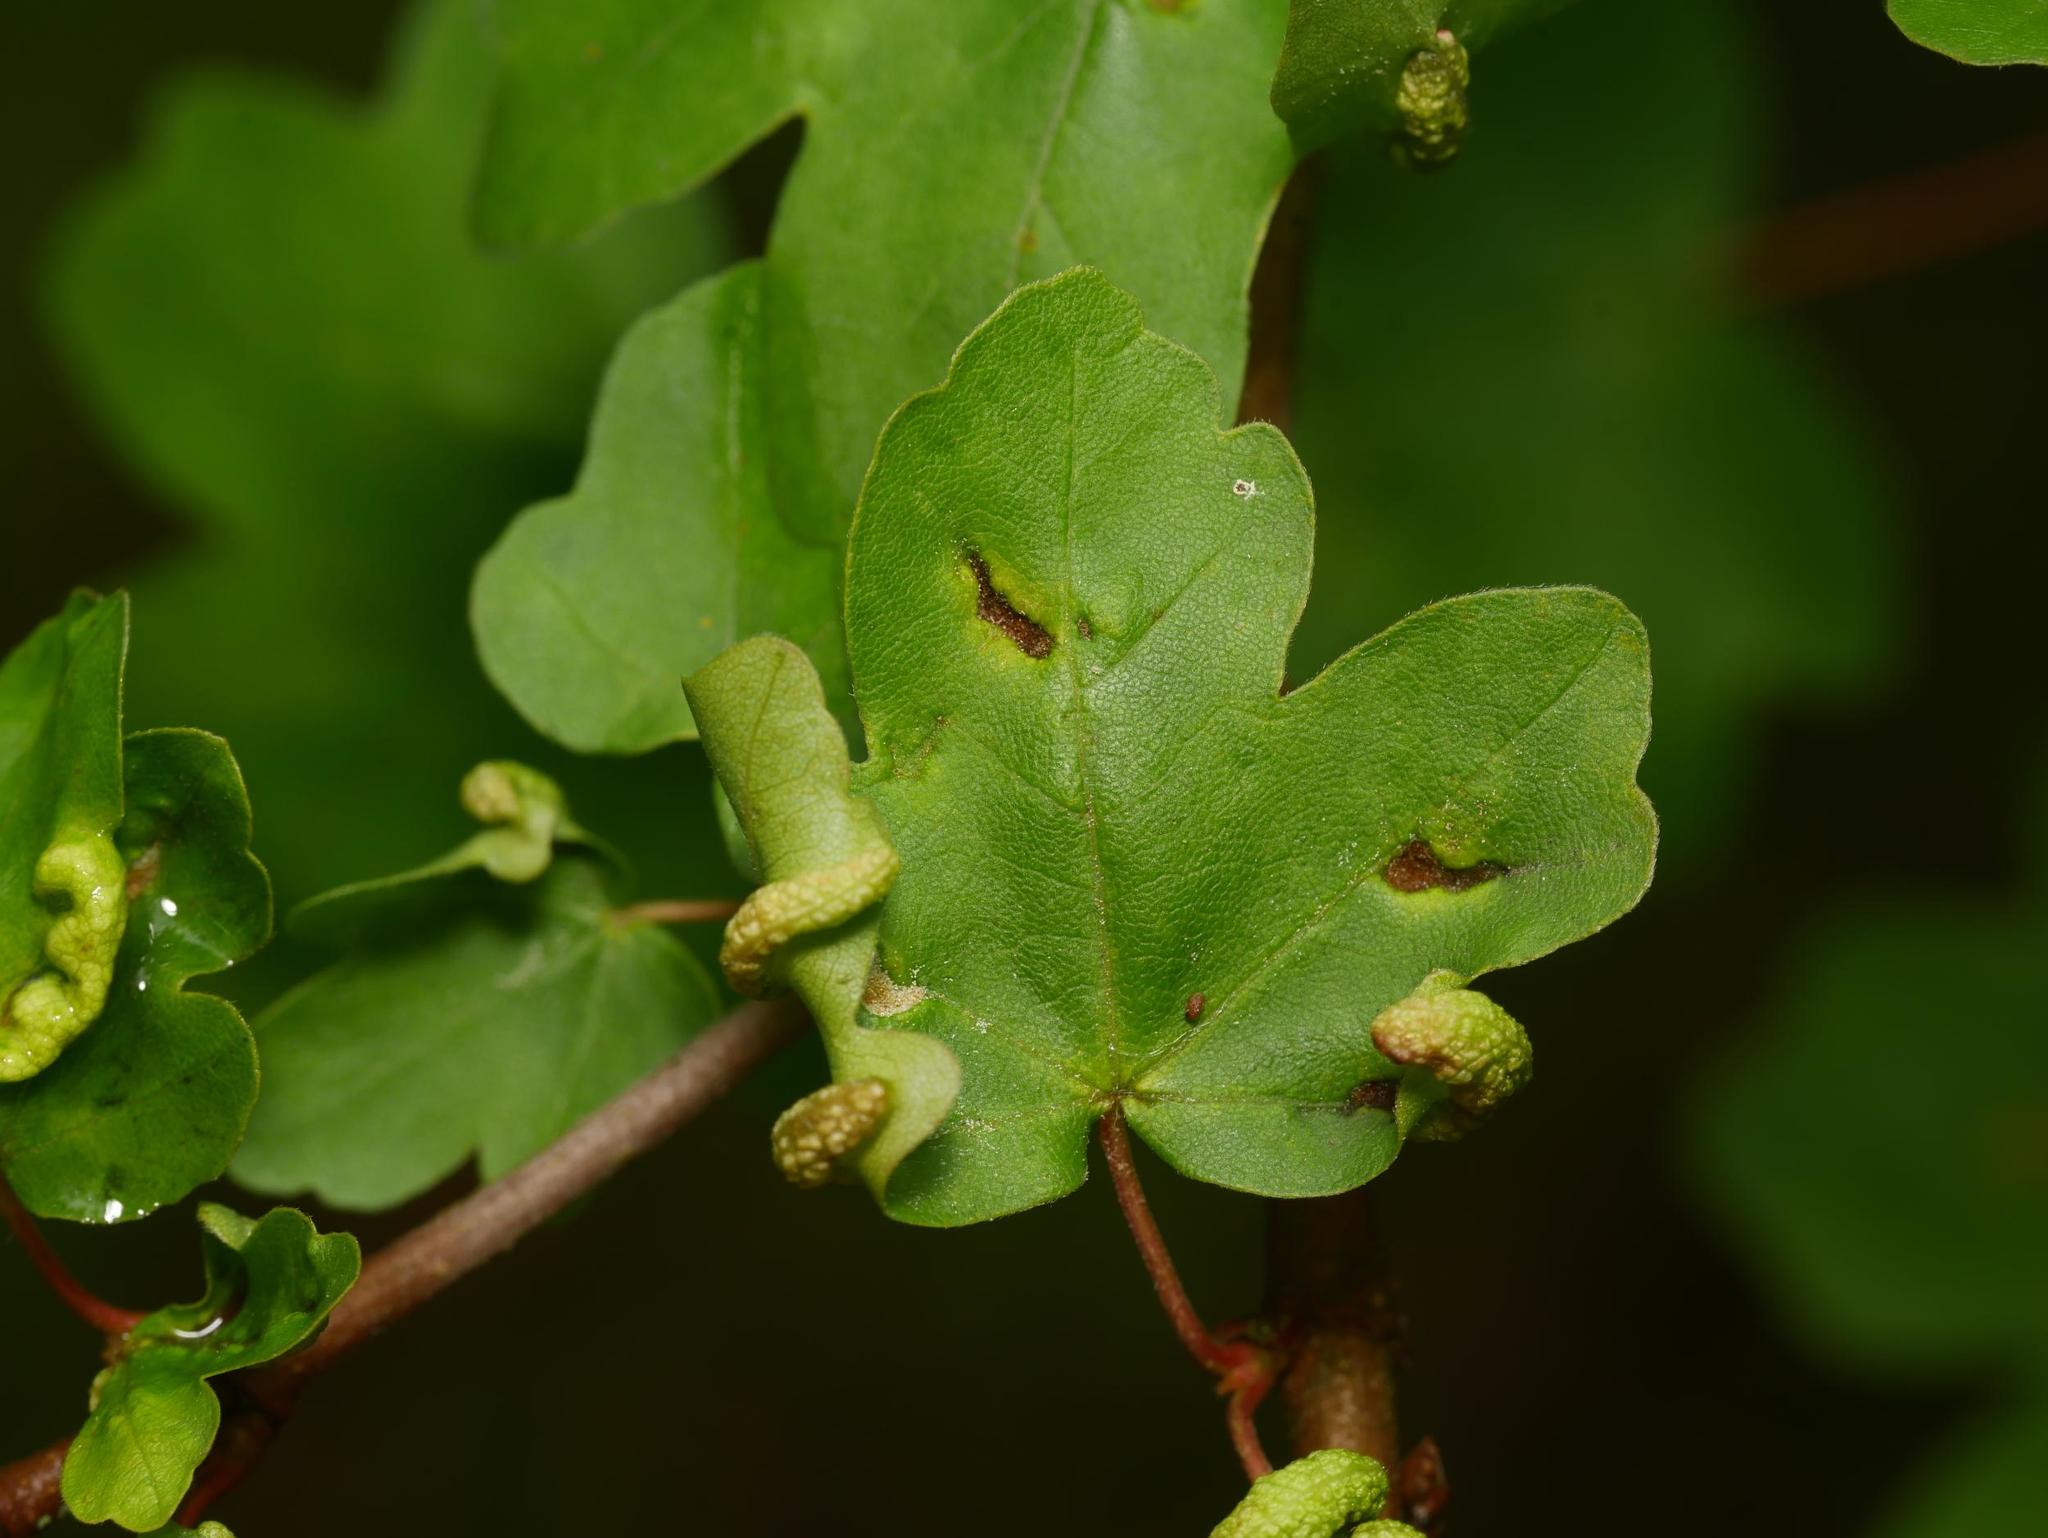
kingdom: Animalia
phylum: Arthropoda
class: Arachnida
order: Trombidiformes
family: Eriophyidae
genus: Aceria
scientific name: Aceria carinifex
